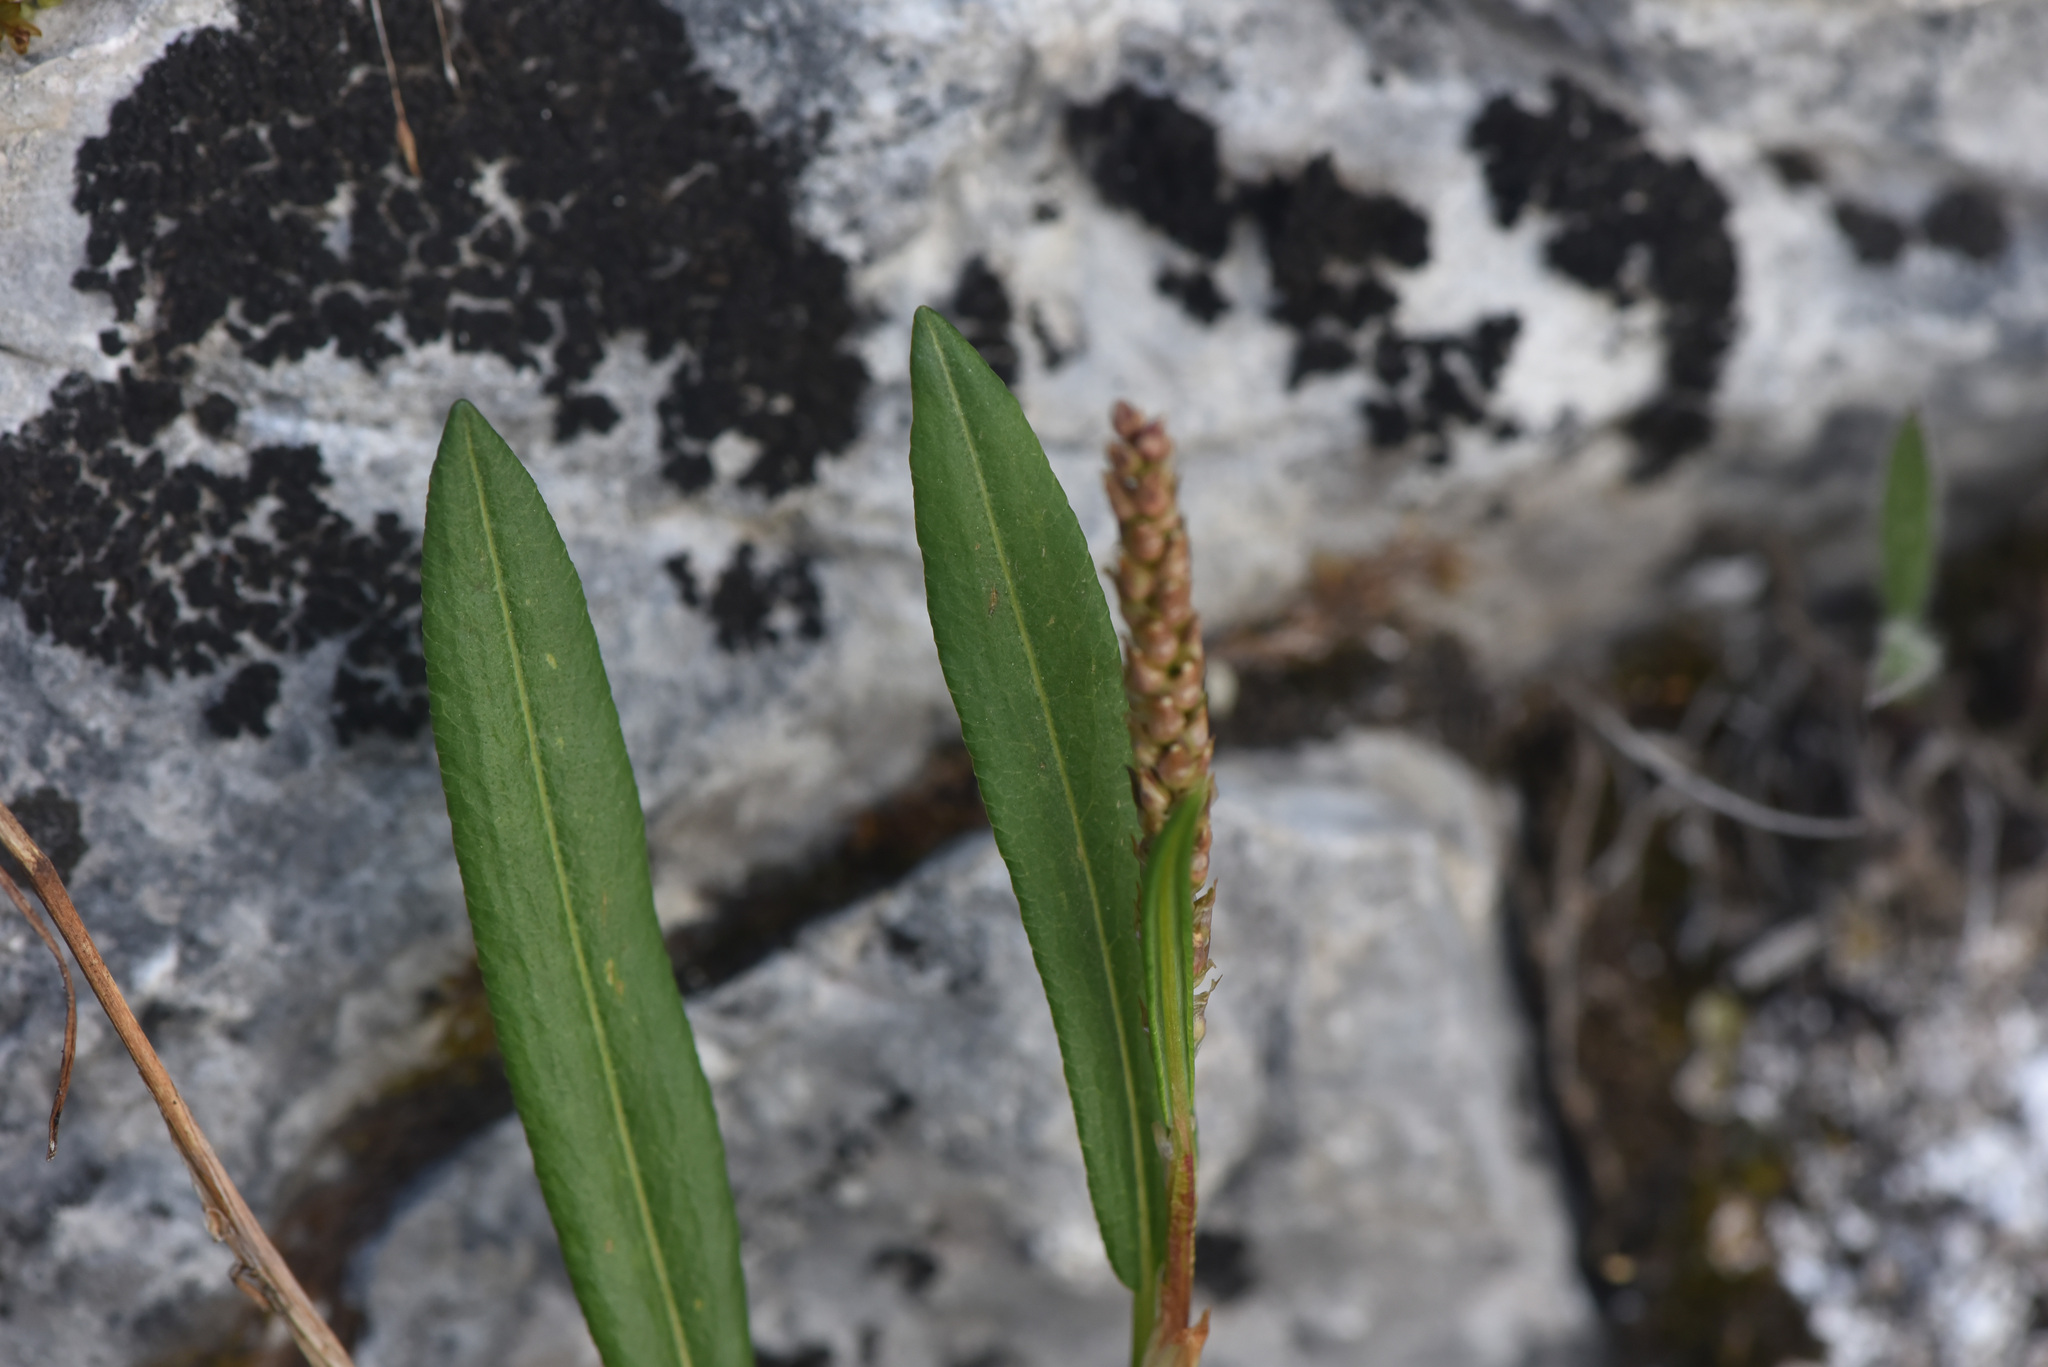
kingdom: Plantae
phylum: Tracheophyta
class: Magnoliopsida
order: Caryophyllales
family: Polygonaceae
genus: Bistorta
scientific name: Bistorta vivipara
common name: Alpine bistort
